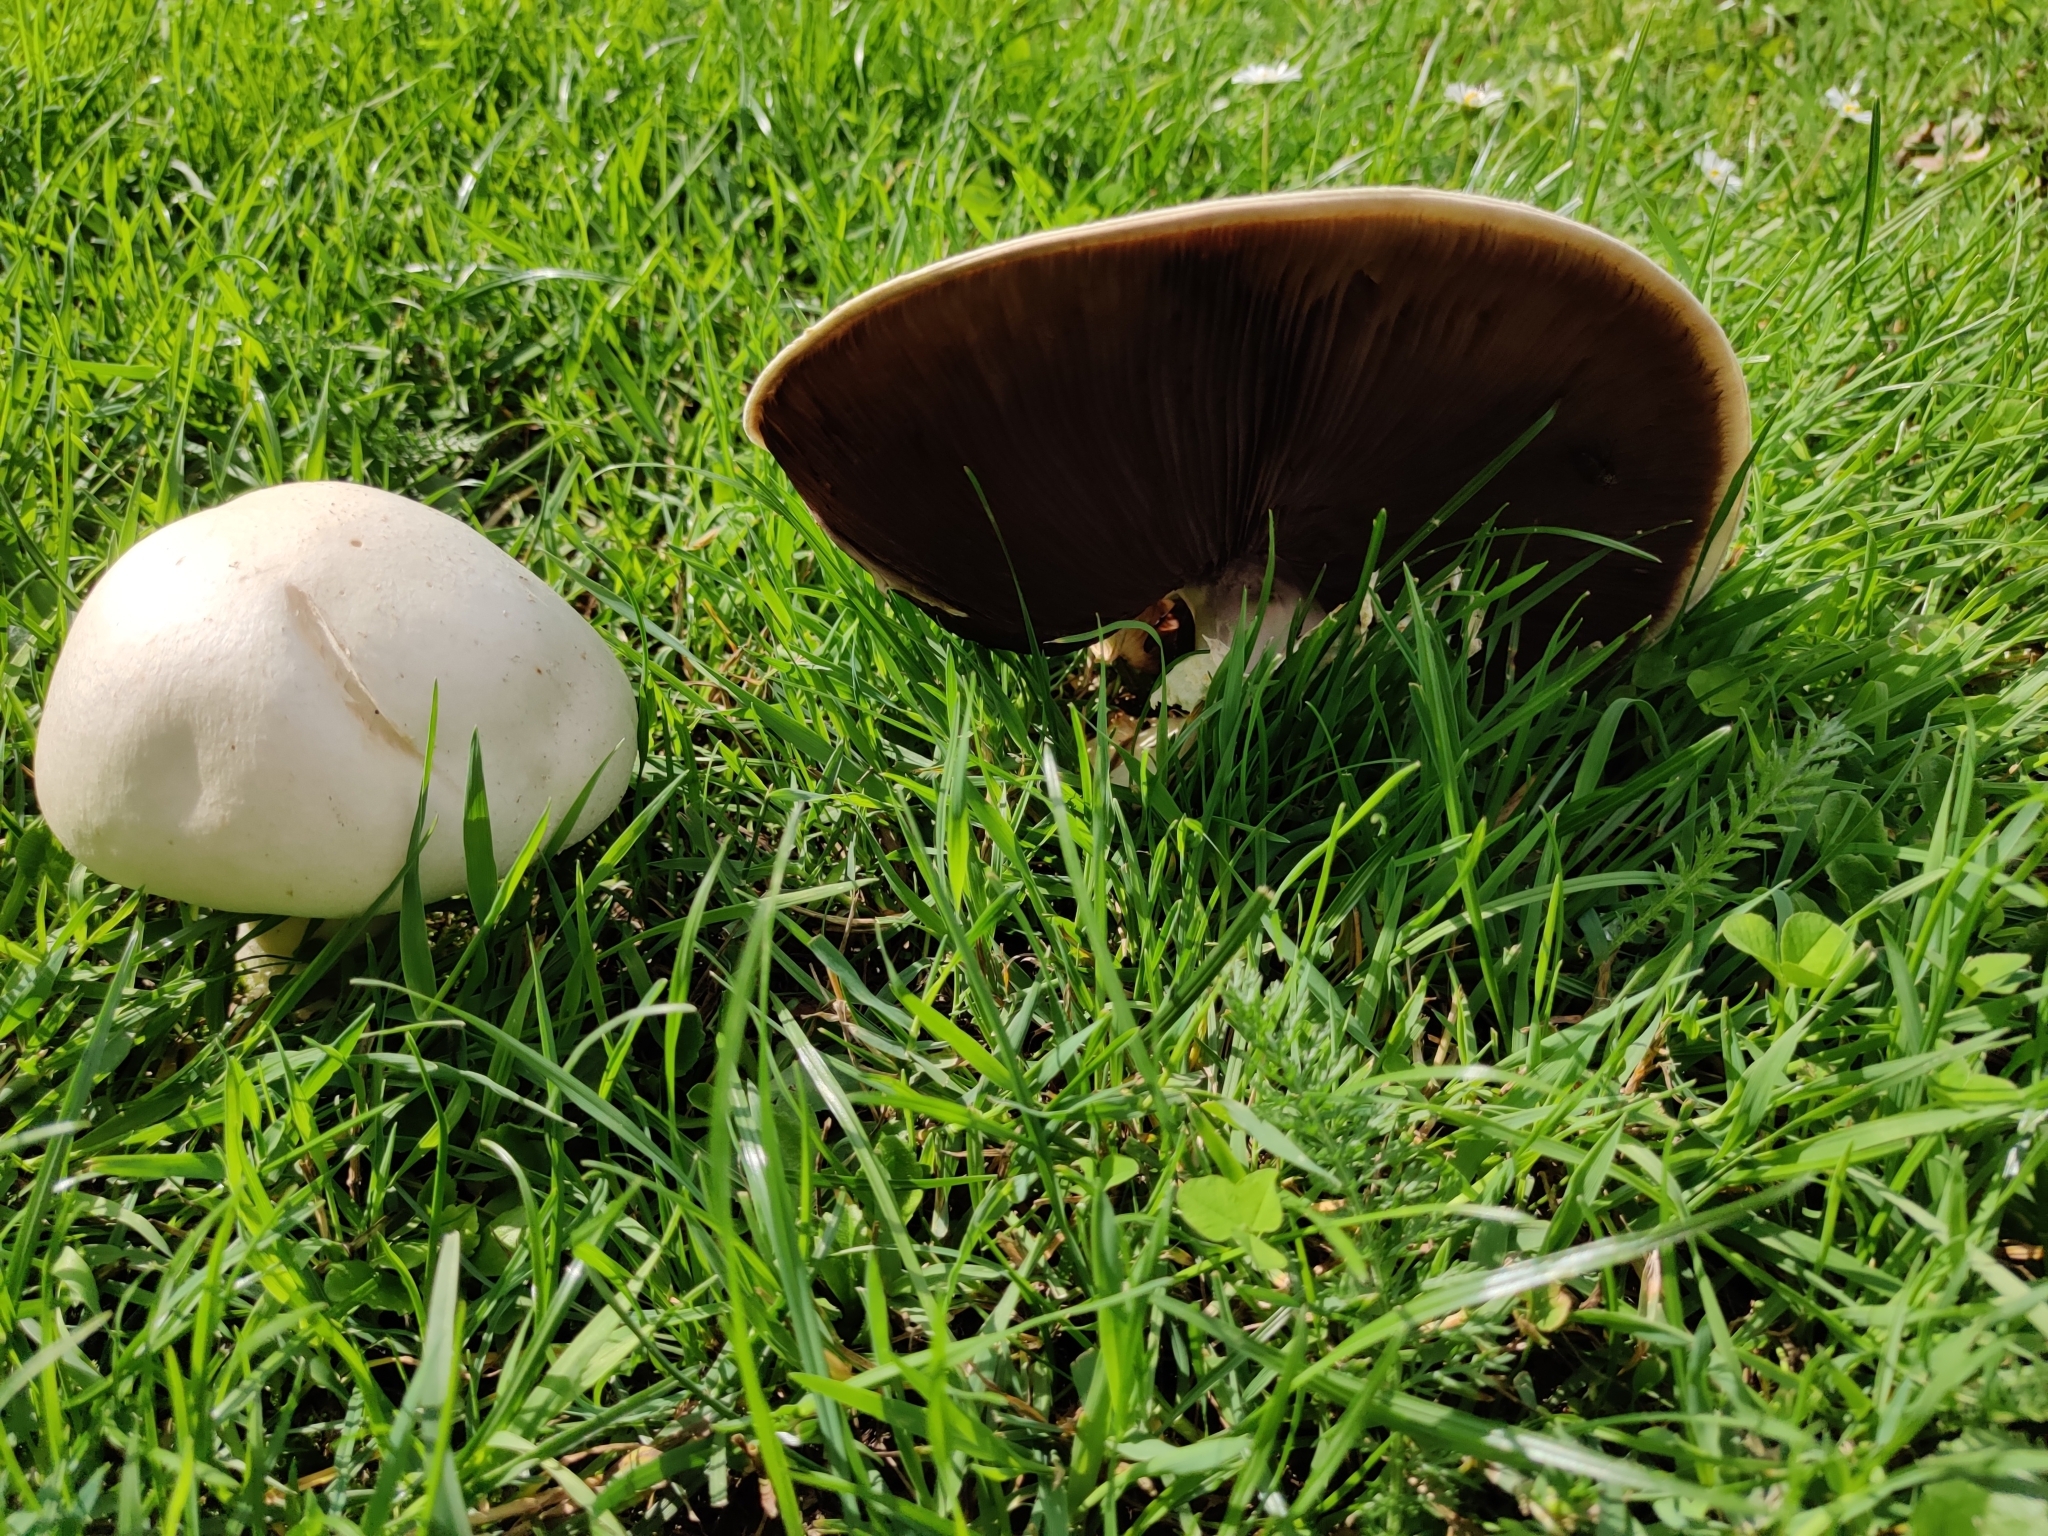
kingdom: Fungi
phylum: Basidiomycota
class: Agaricomycetes
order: Agaricales
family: Agaricaceae
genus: Agaricus
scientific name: Agaricus arvensis
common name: Horse mushroom
